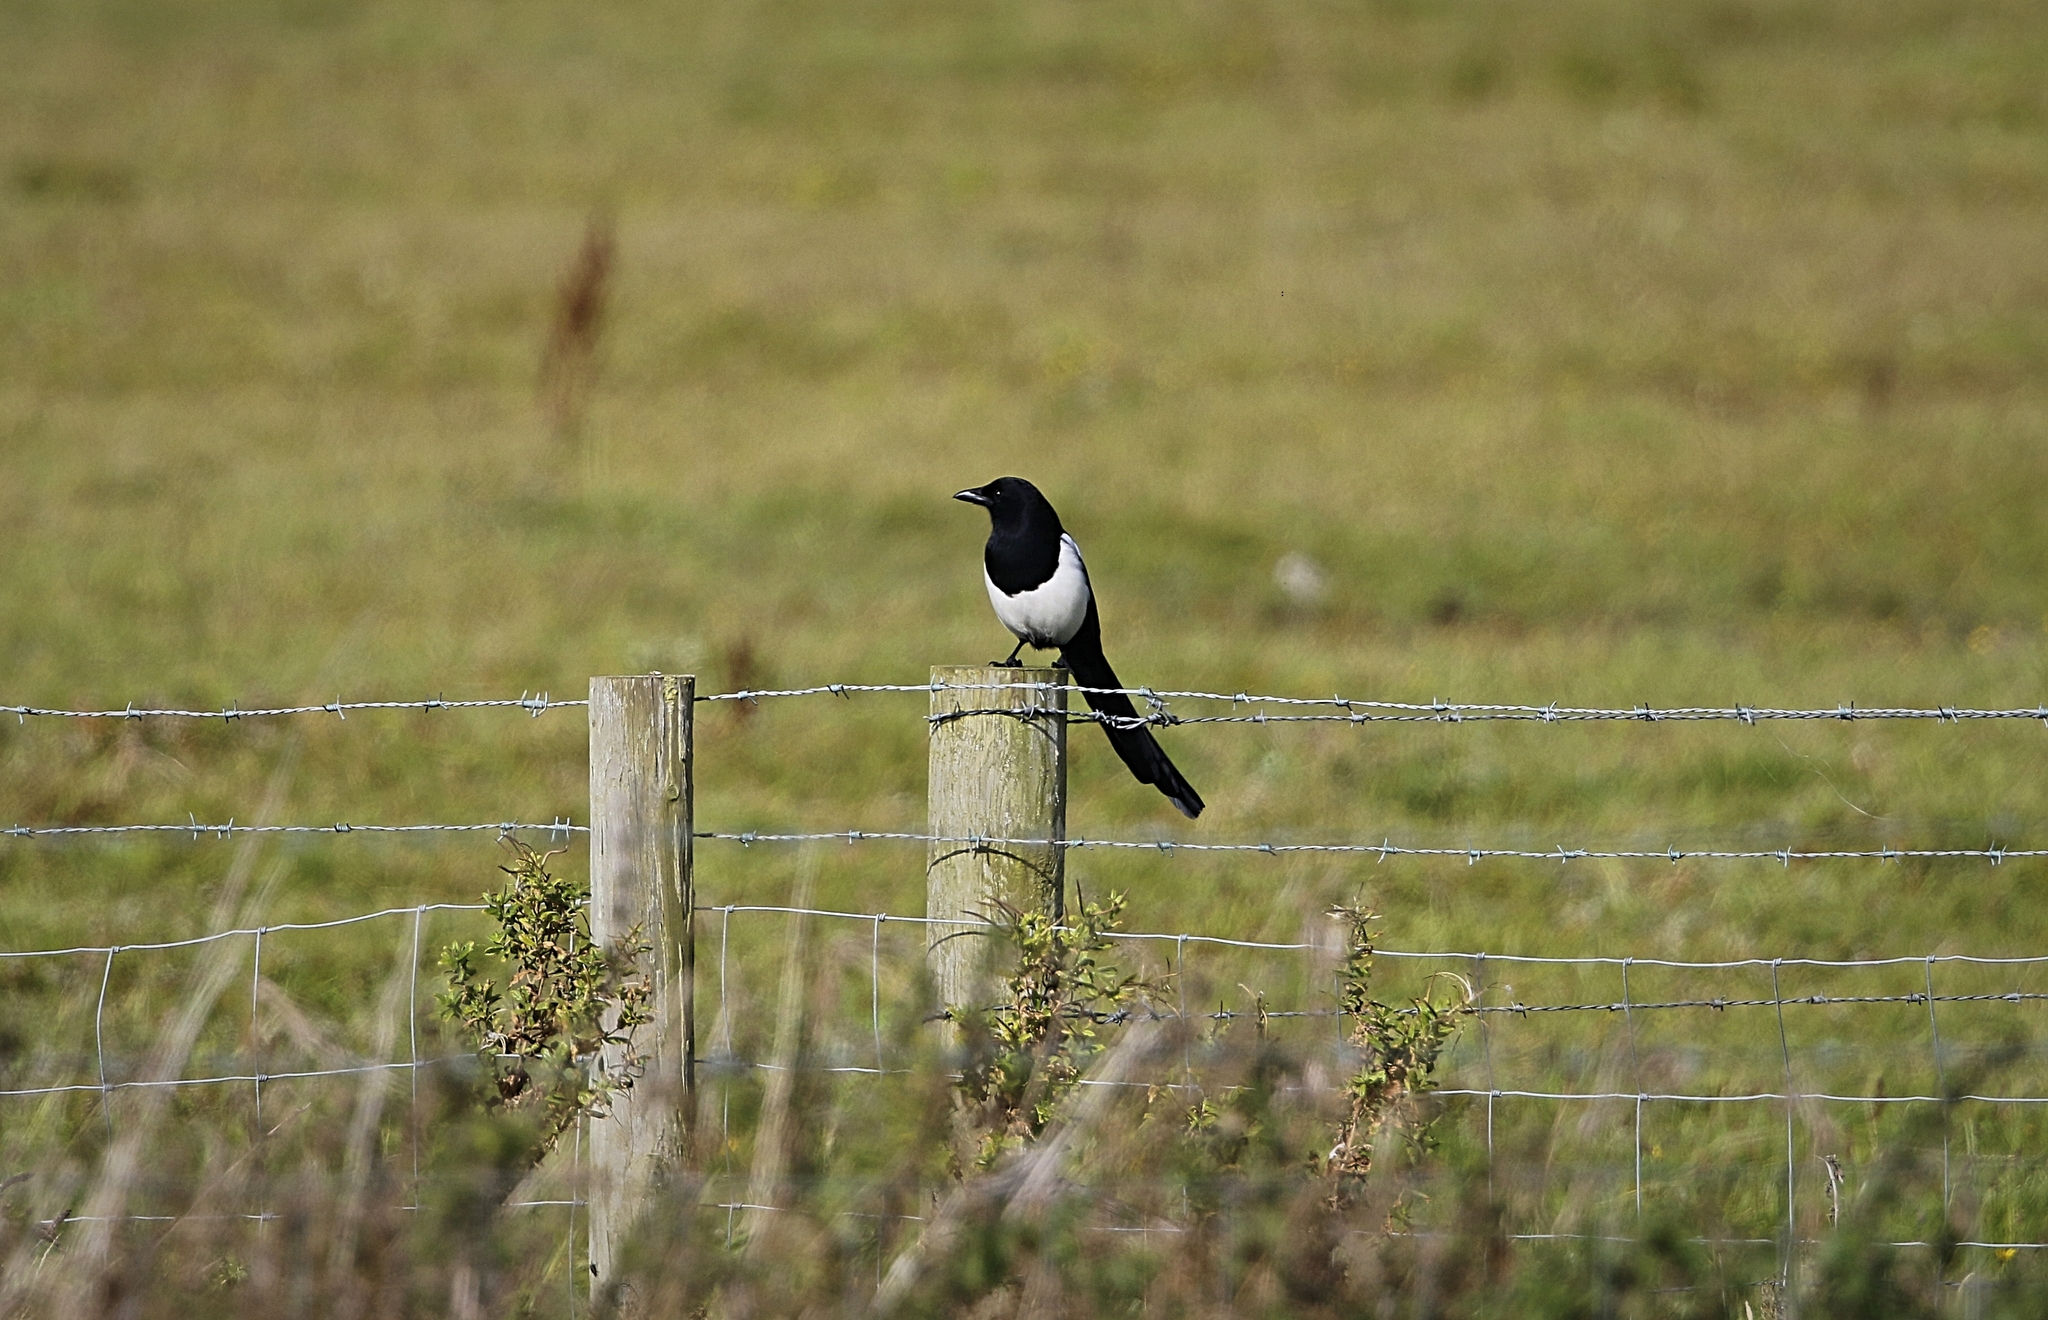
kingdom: Animalia
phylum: Chordata
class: Aves
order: Passeriformes
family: Corvidae
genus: Pica
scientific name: Pica pica
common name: Eurasian magpie
